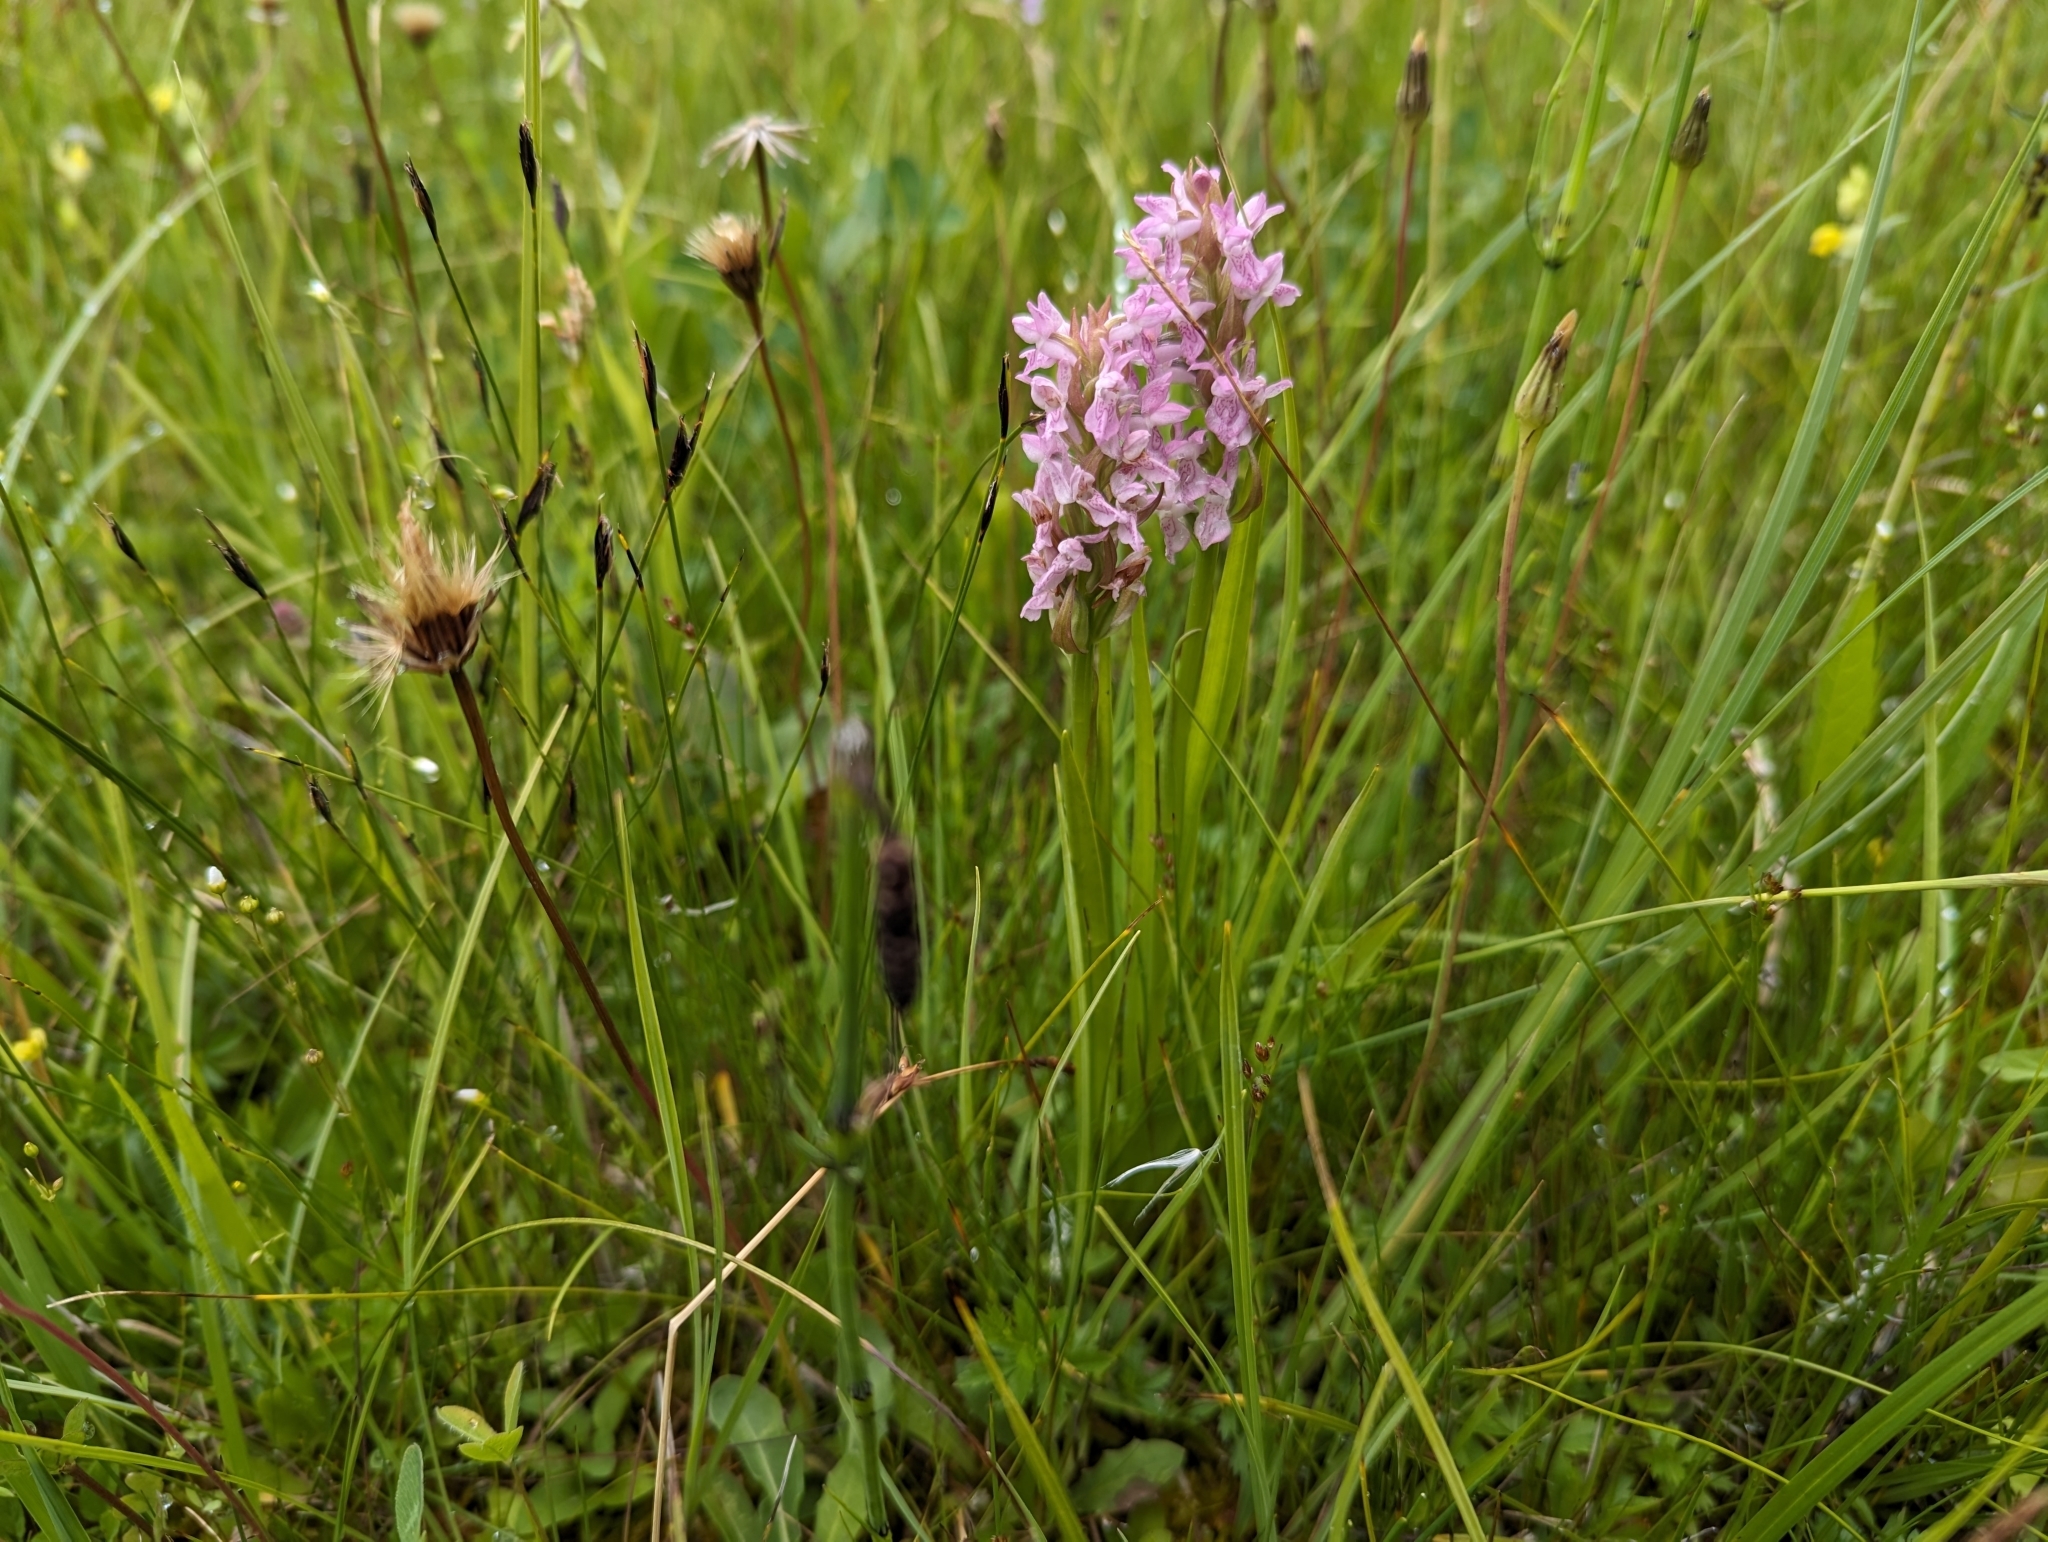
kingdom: Plantae
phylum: Tracheophyta
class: Liliopsida
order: Asparagales
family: Orchidaceae
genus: Dactylorhiza
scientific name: Dactylorhiza incarnata
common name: Early marsh-orchid
